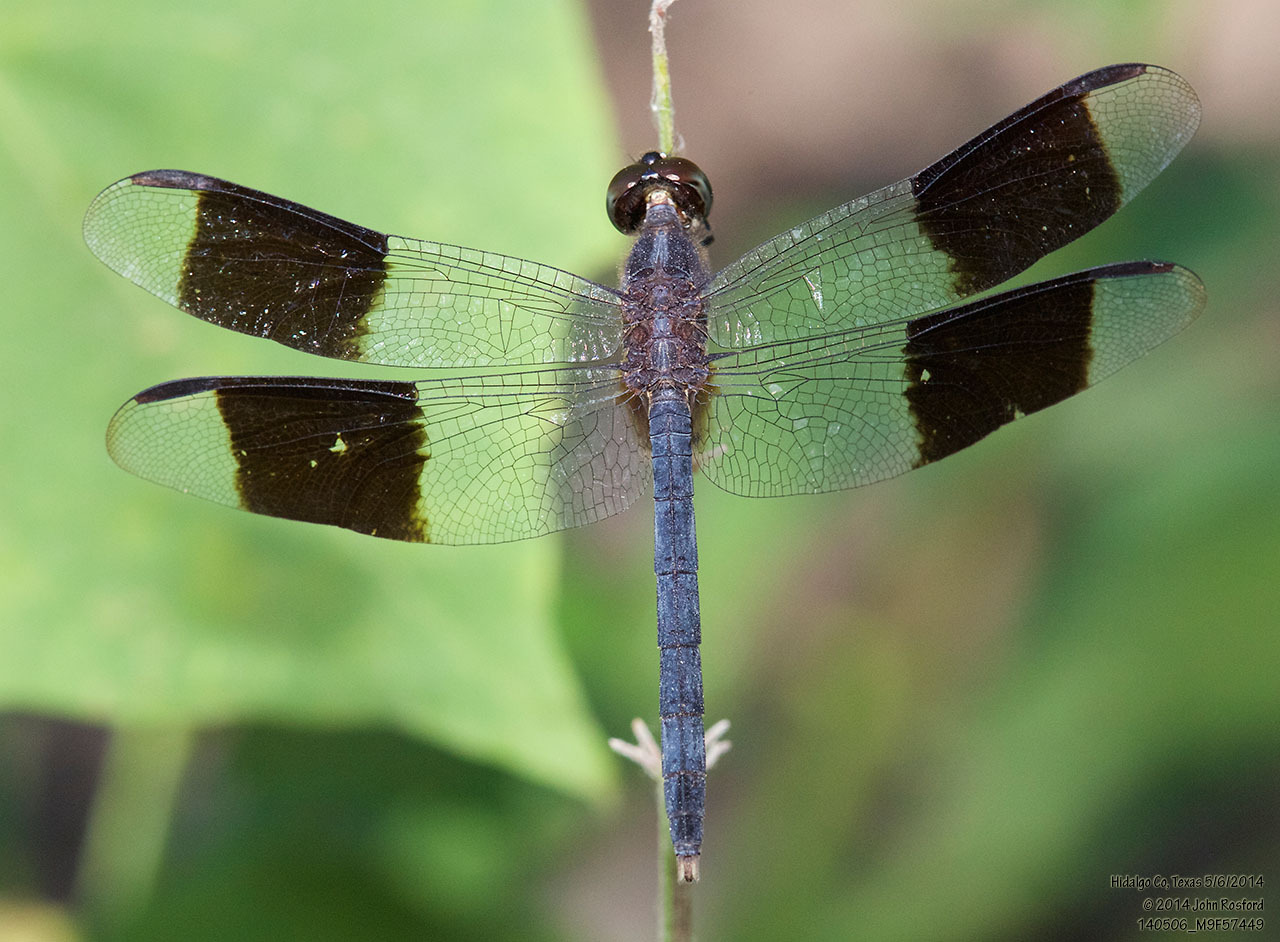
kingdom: Animalia
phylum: Arthropoda
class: Insecta
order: Odonata
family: Libellulidae
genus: Erythrodiplax
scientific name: Erythrodiplax umbrata
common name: Band-winged dragonlet
